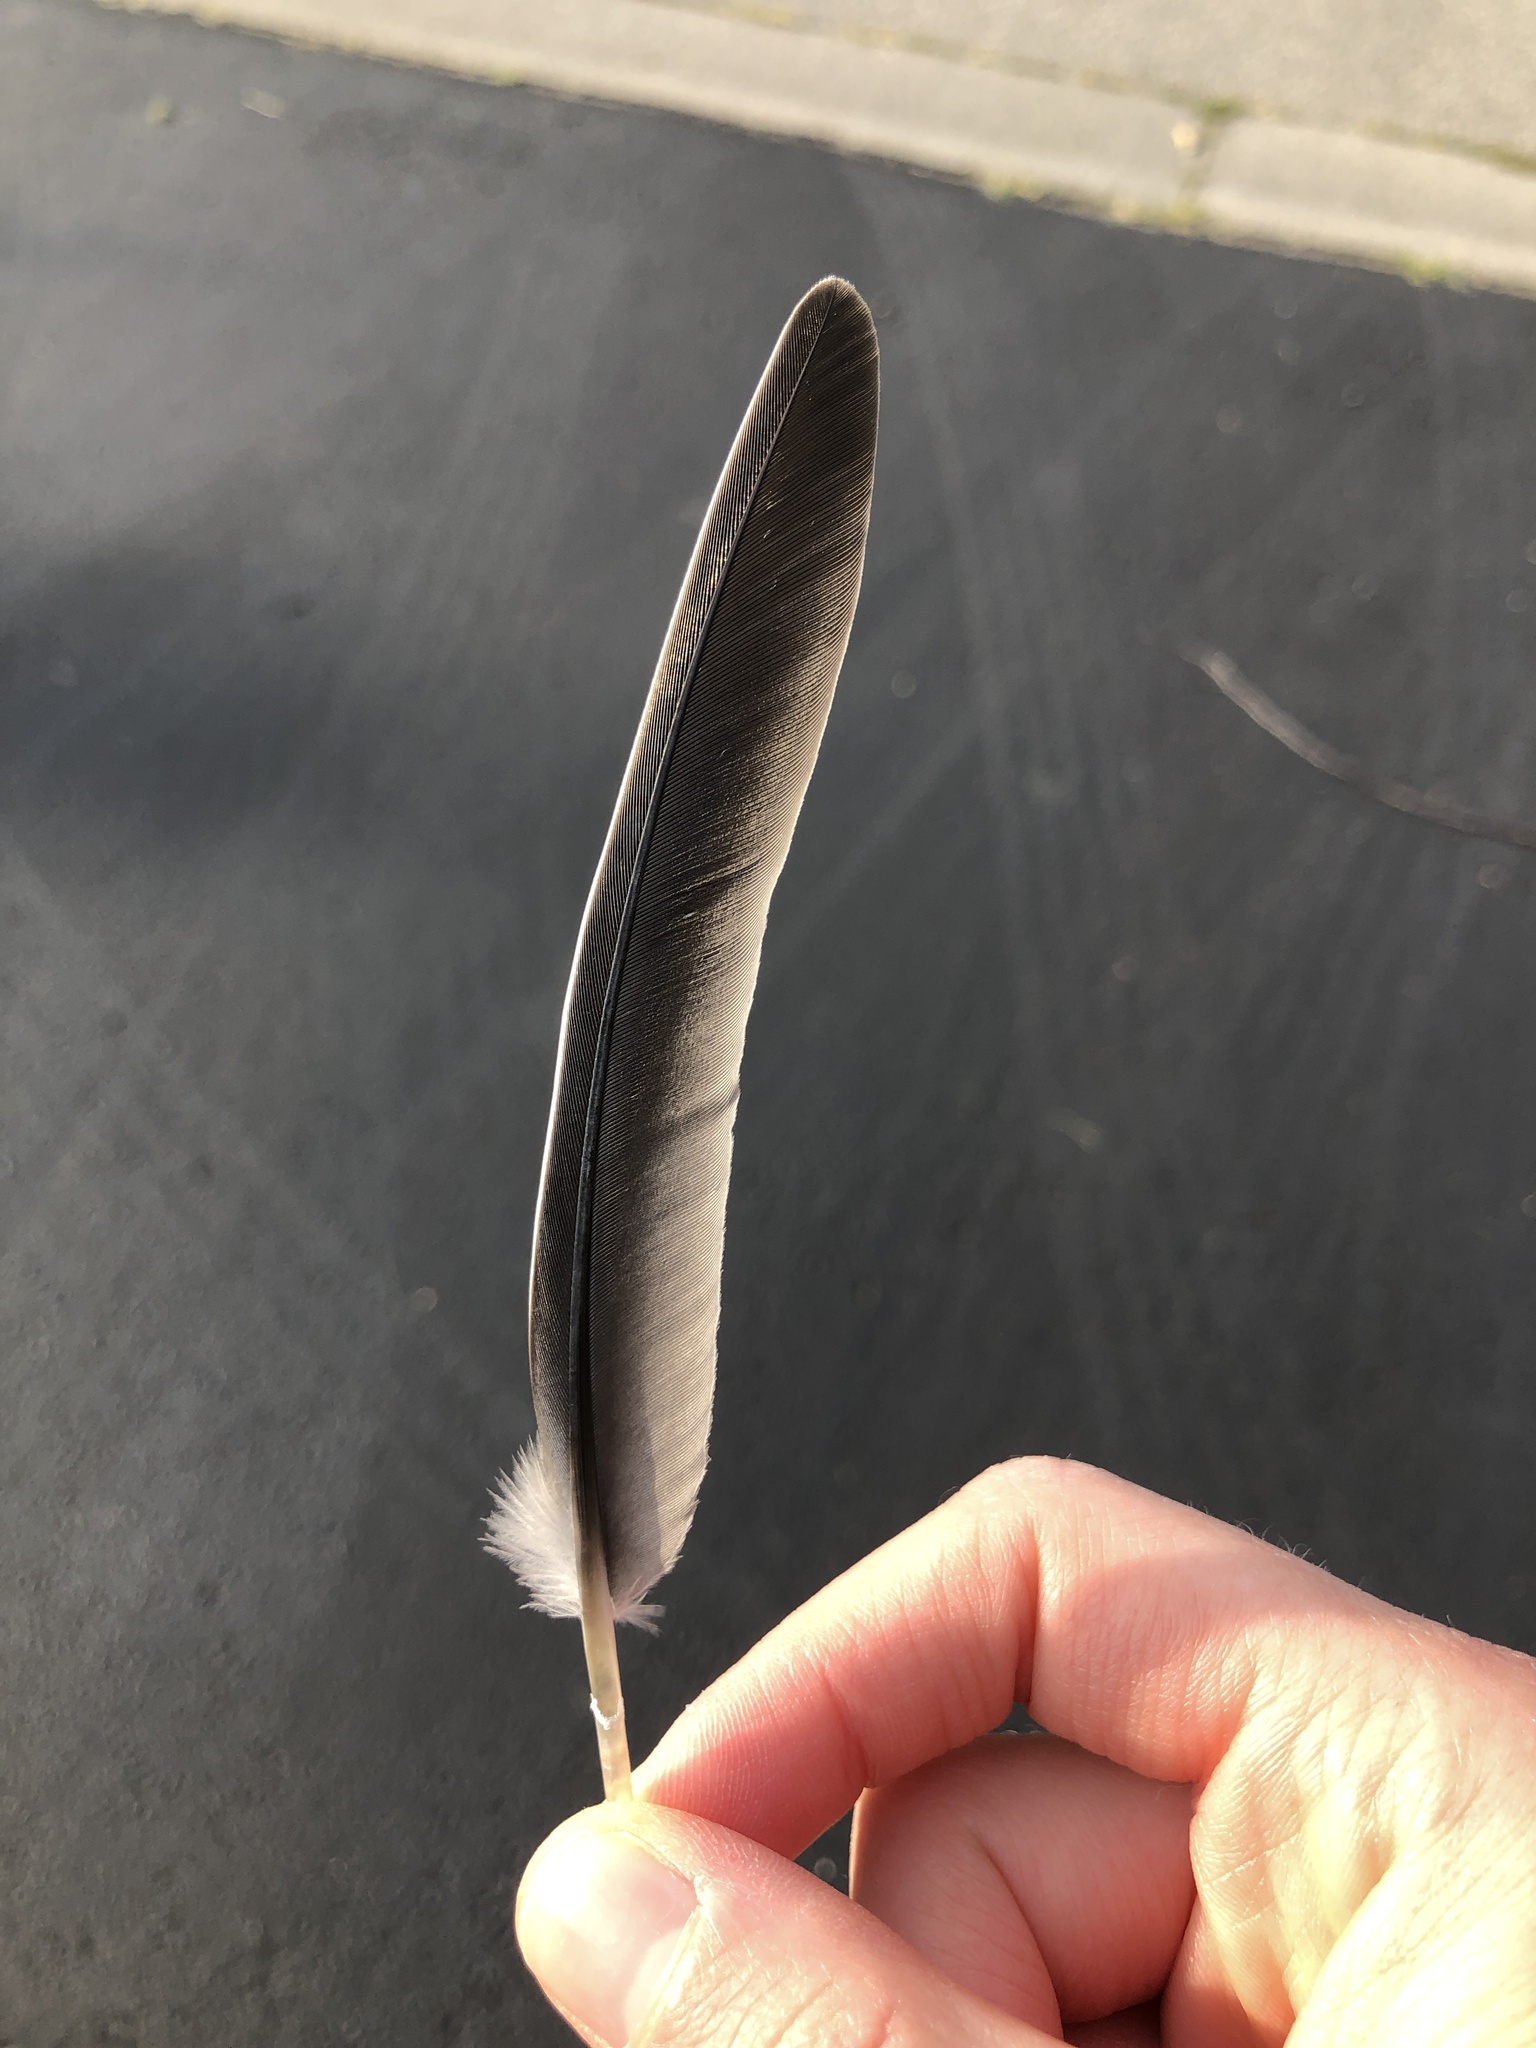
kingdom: Animalia
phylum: Chordata
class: Aves
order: Columbiformes
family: Columbidae
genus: Zenaida
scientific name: Zenaida macroura
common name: Mourning dove
